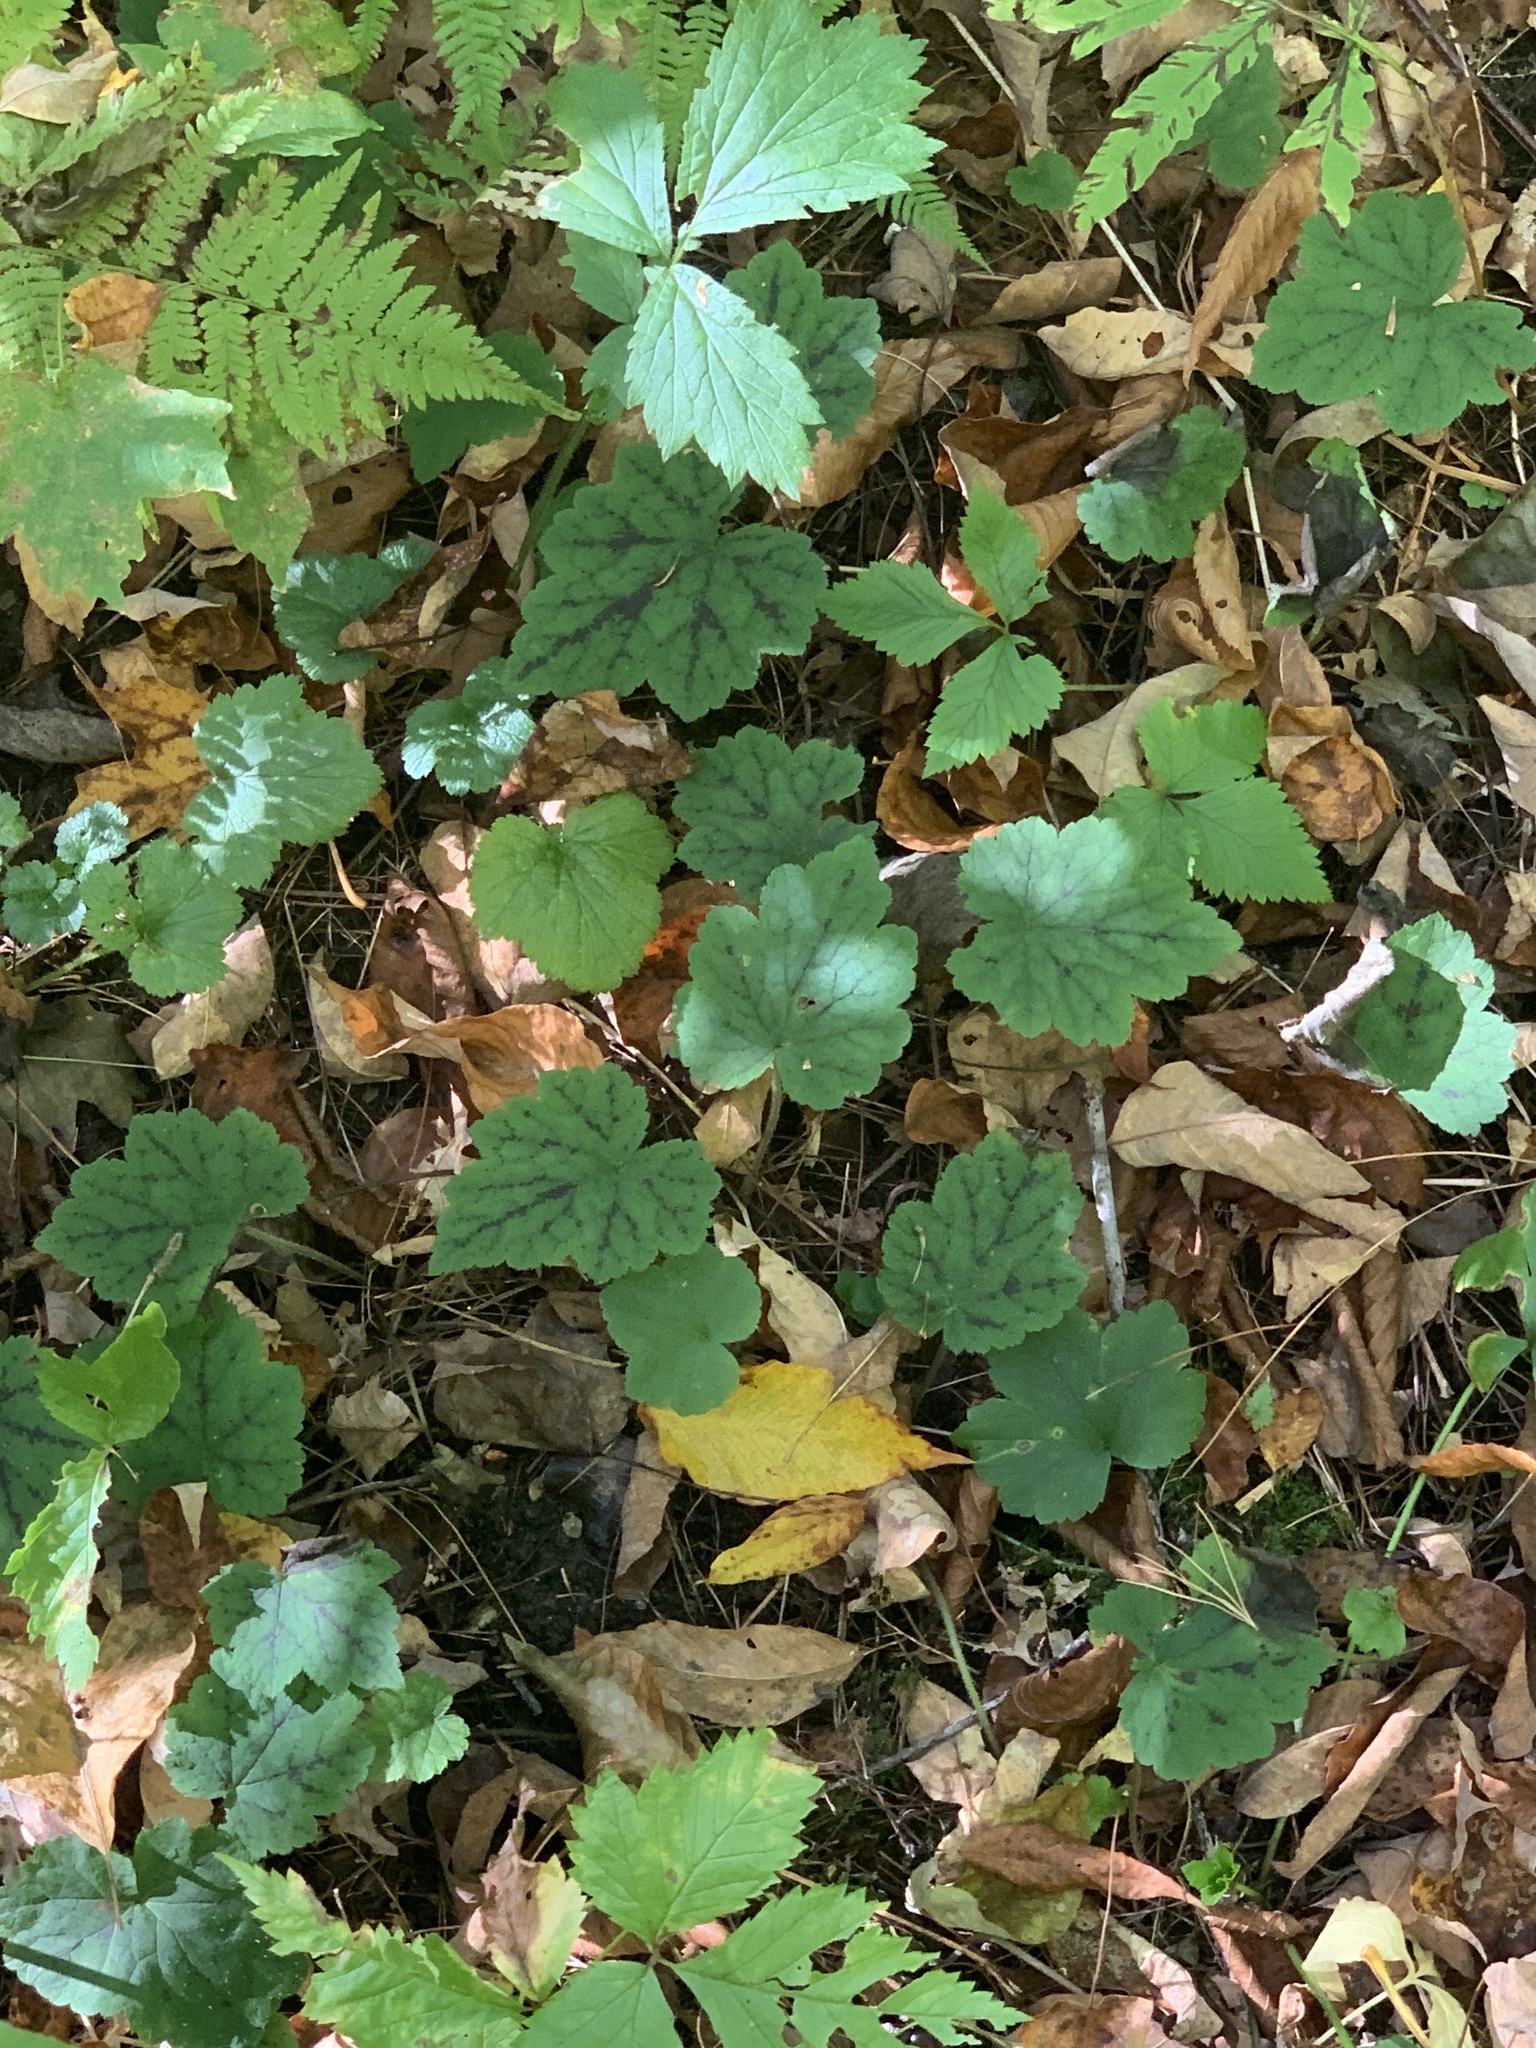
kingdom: Plantae
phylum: Tracheophyta
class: Magnoliopsida
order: Saxifragales
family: Saxifragaceae
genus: Tiarella
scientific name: Tiarella stolonifera
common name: Stoloniferous foamflower
